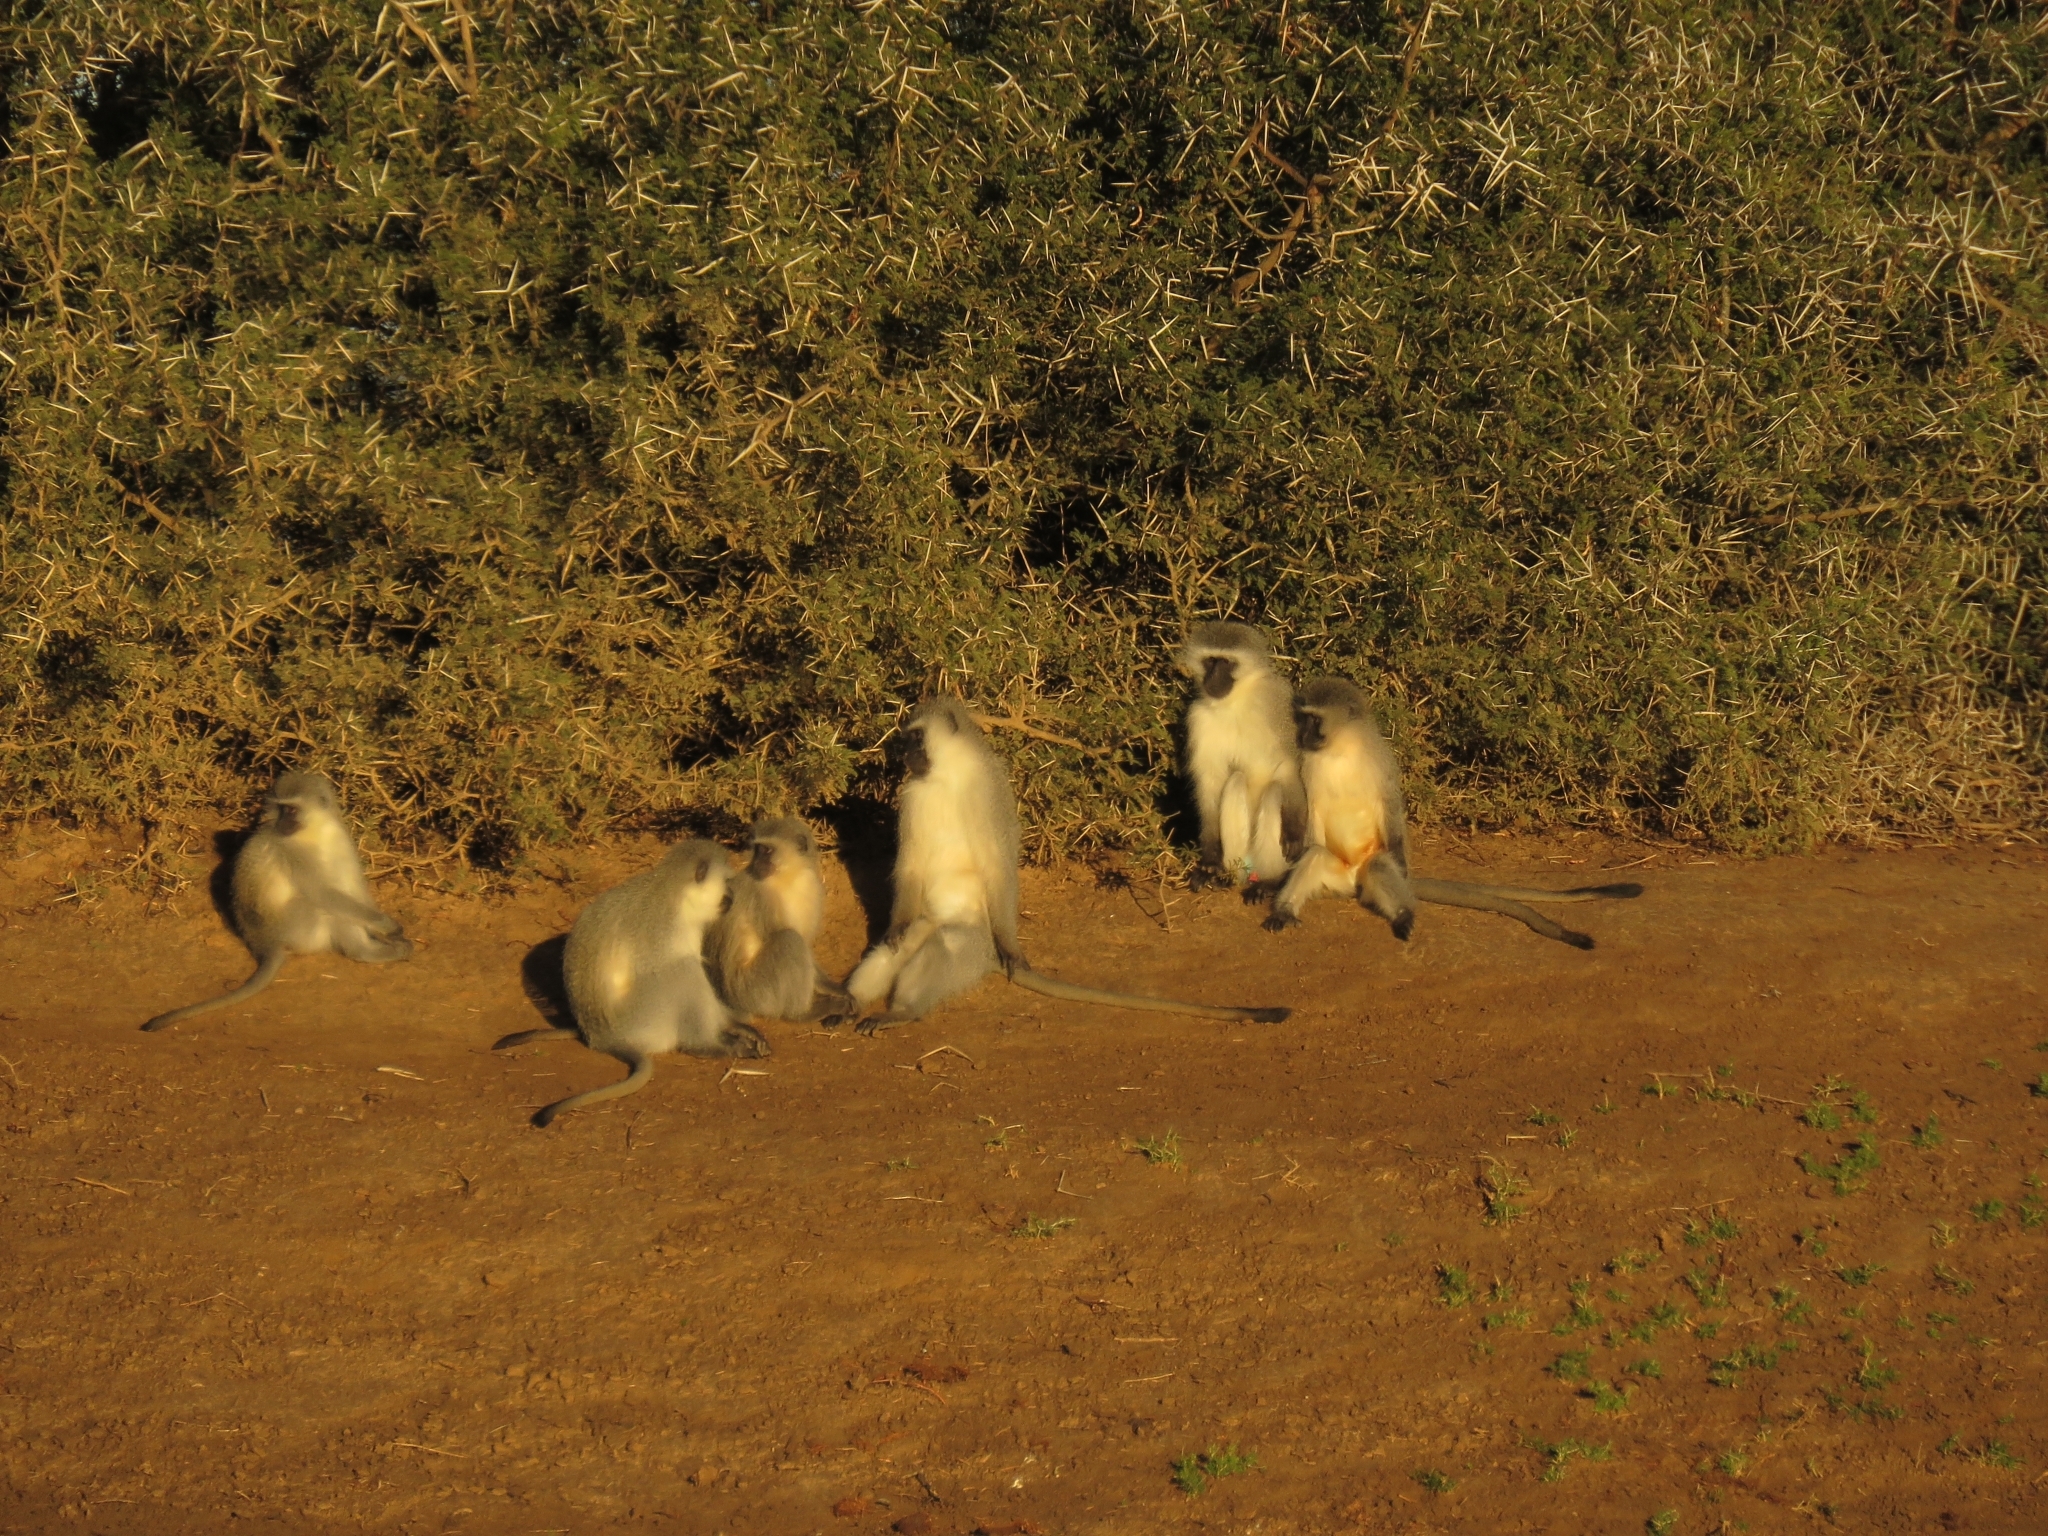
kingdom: Animalia
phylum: Chordata
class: Mammalia
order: Primates
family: Cercopithecidae
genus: Chlorocebus
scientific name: Chlorocebus pygerythrus
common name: Vervet monkey
